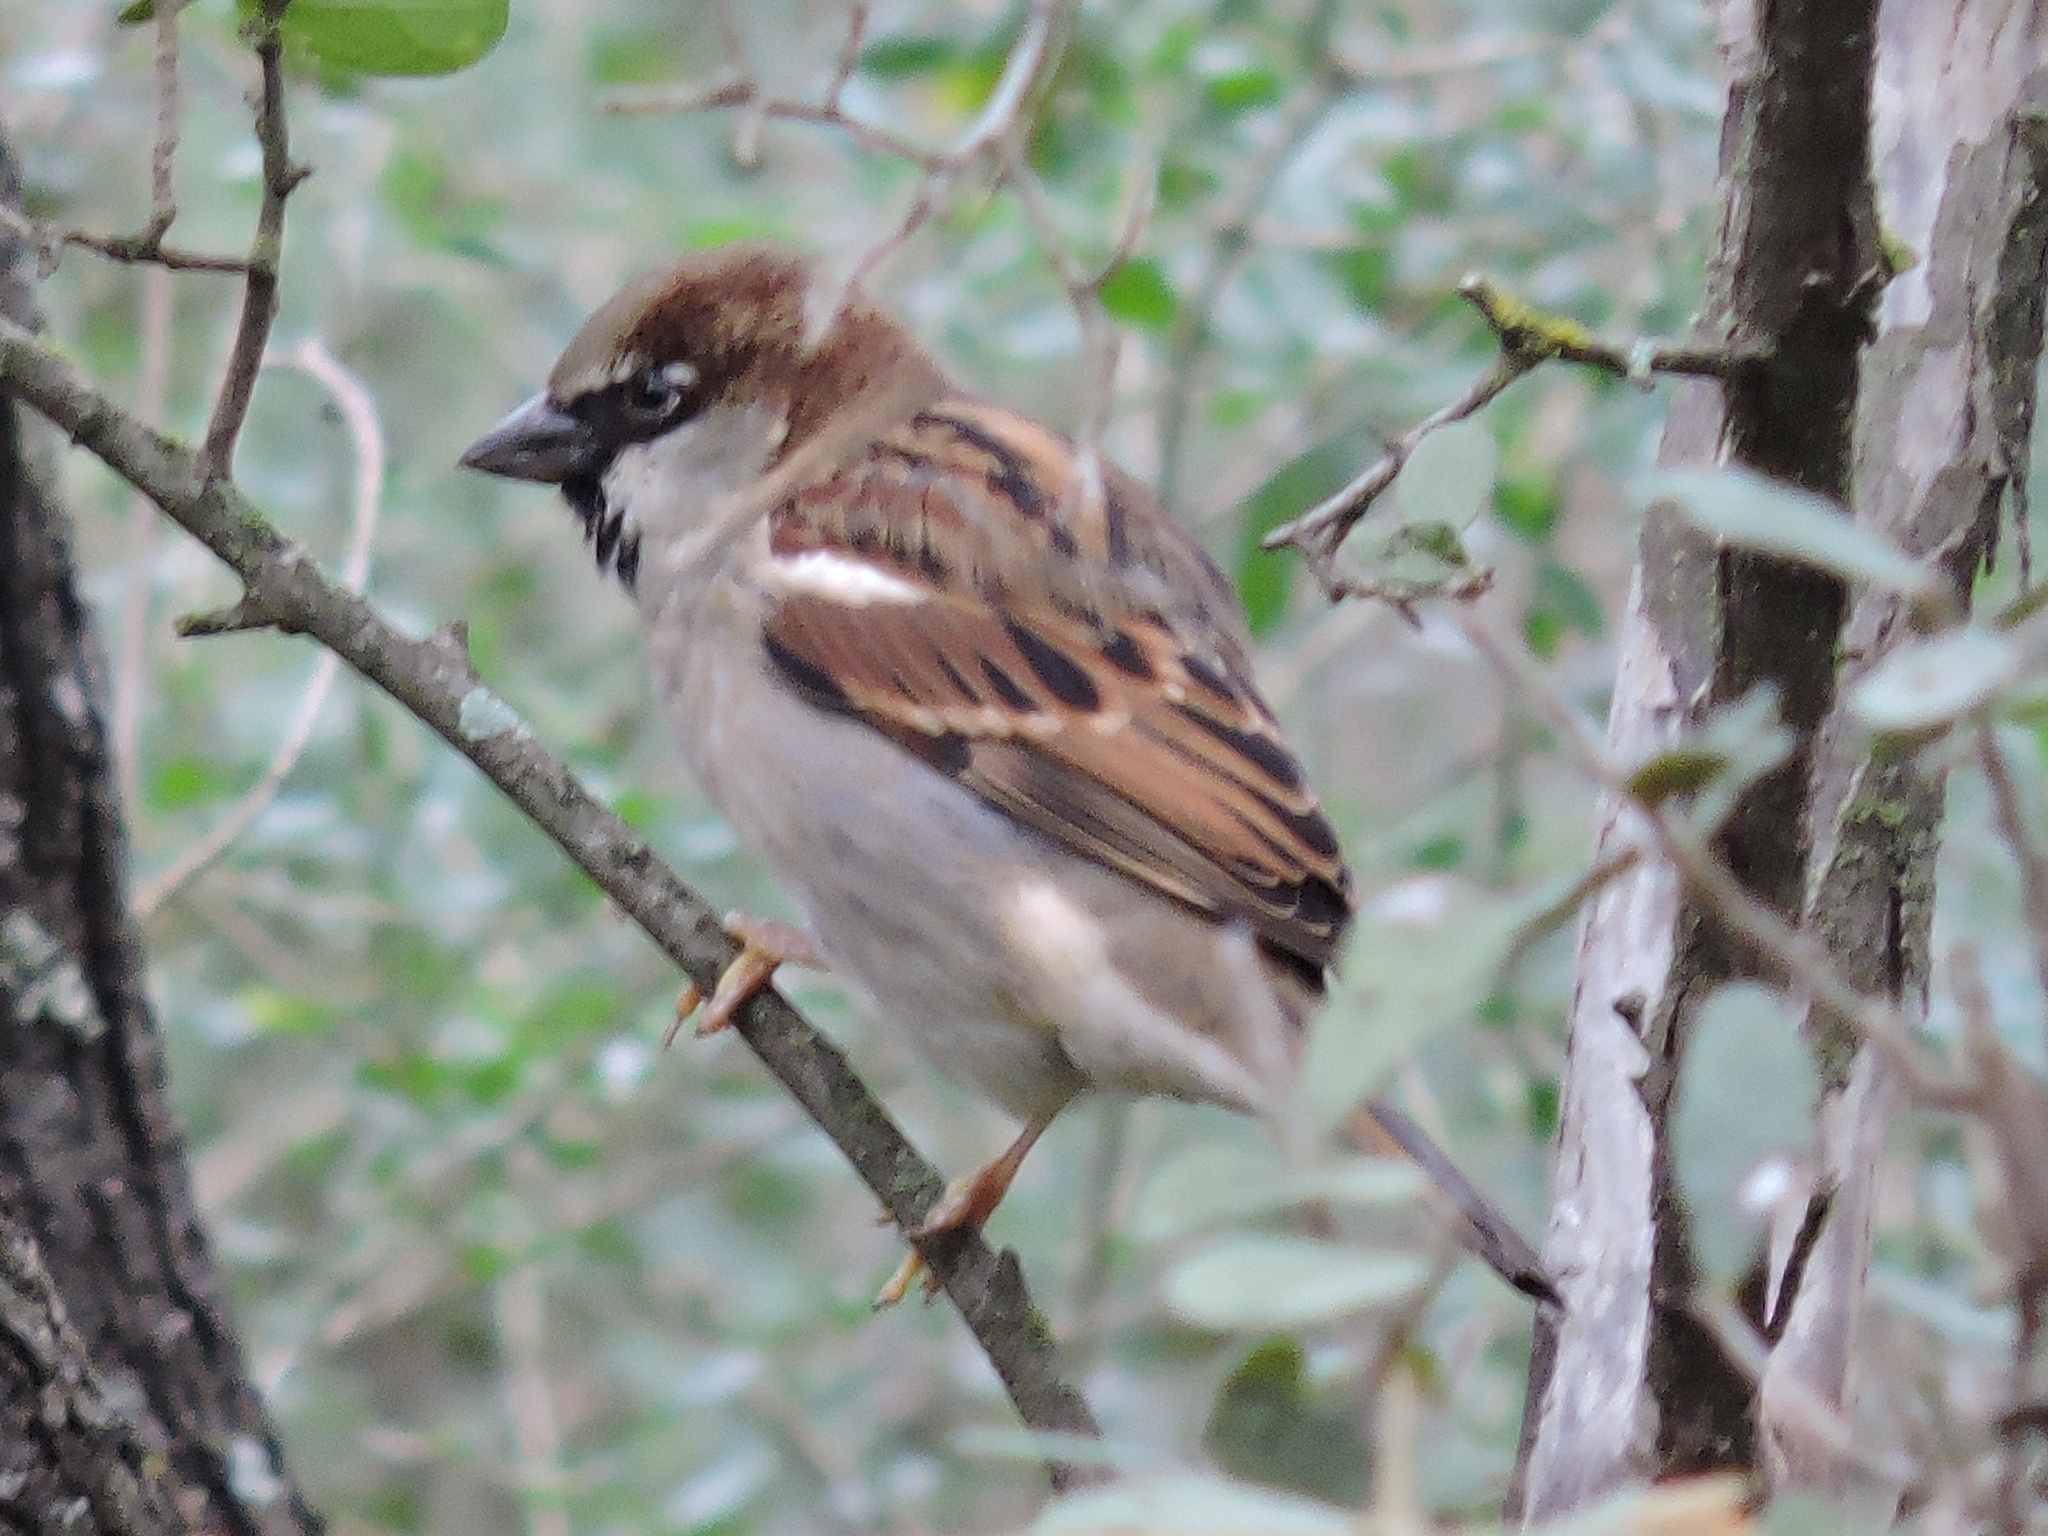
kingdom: Animalia
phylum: Chordata
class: Aves
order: Passeriformes
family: Passeridae
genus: Passer
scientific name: Passer domesticus
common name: House sparrow
